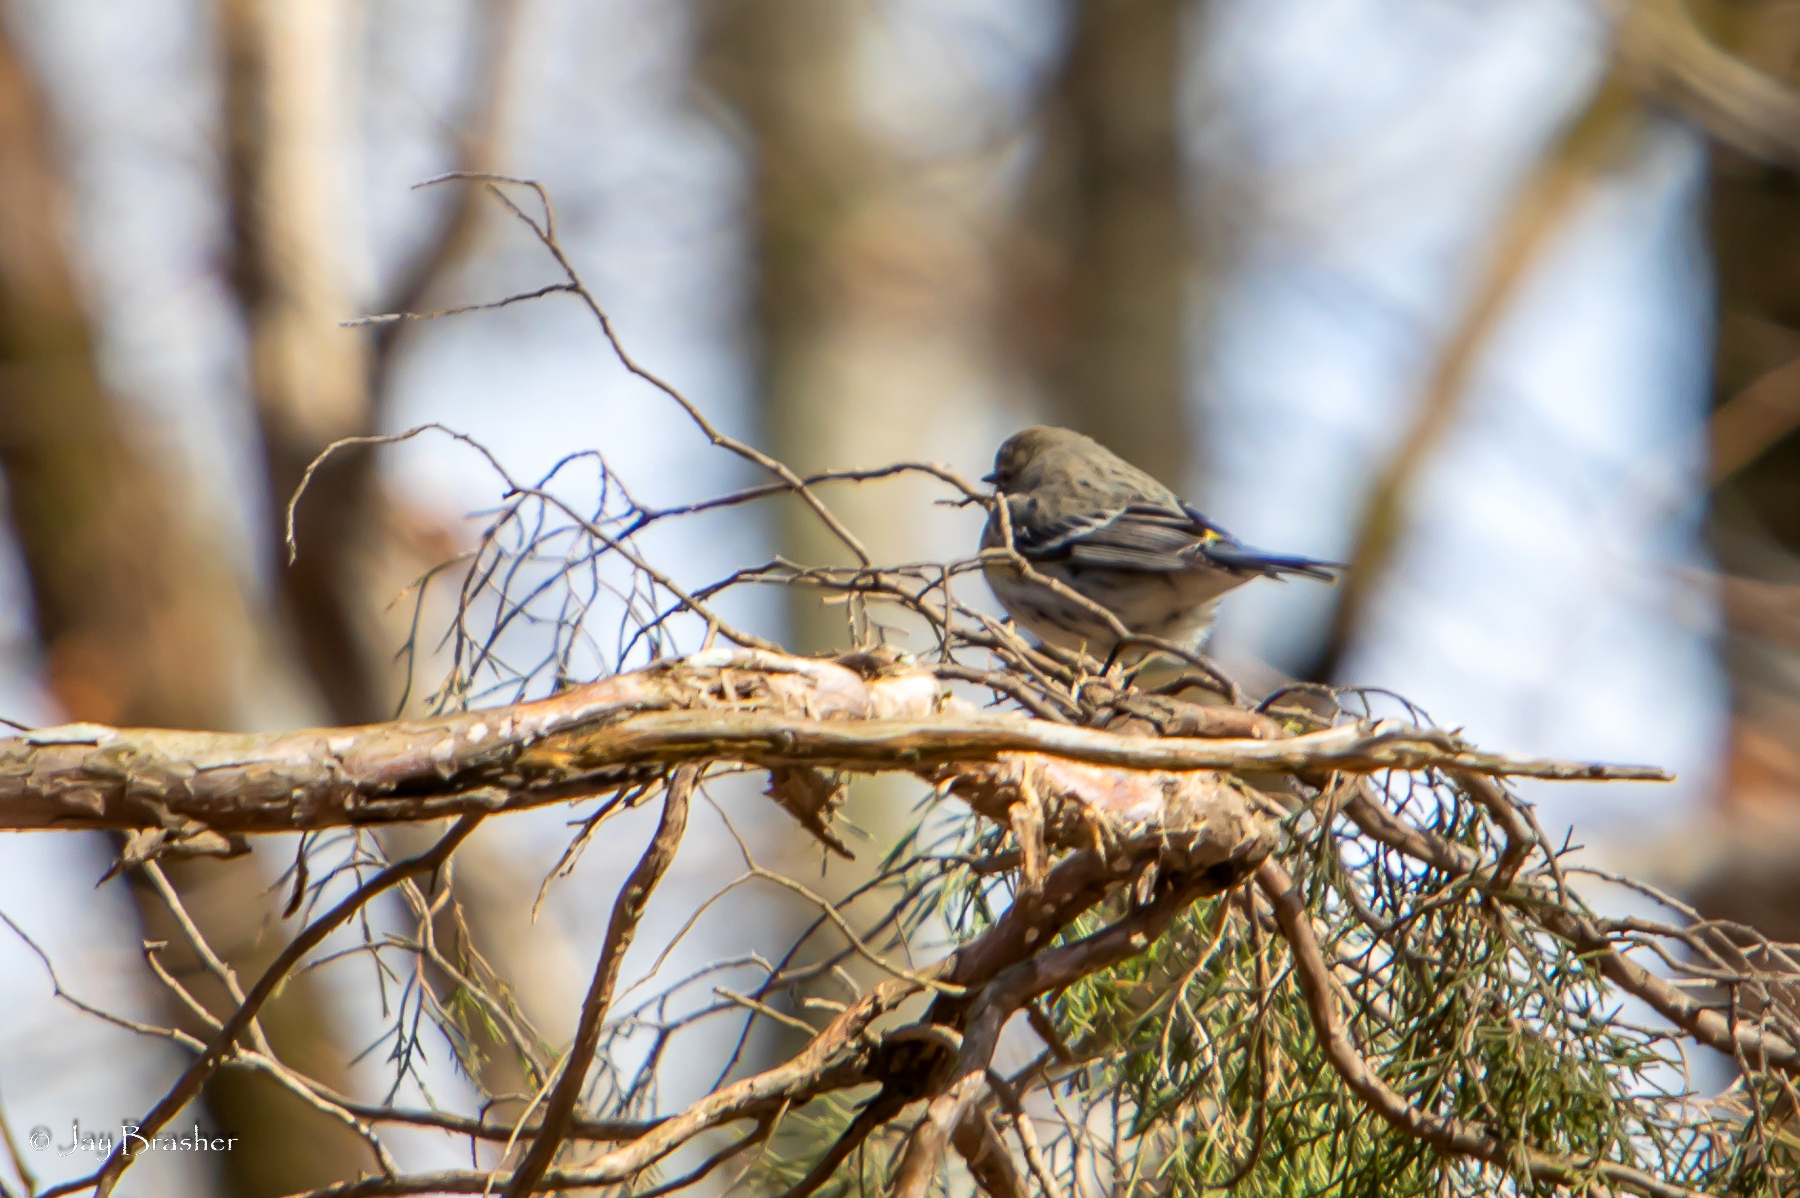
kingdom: Animalia
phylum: Chordata
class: Aves
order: Passeriformes
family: Parulidae
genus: Setophaga
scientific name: Setophaga coronata
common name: Myrtle warbler
